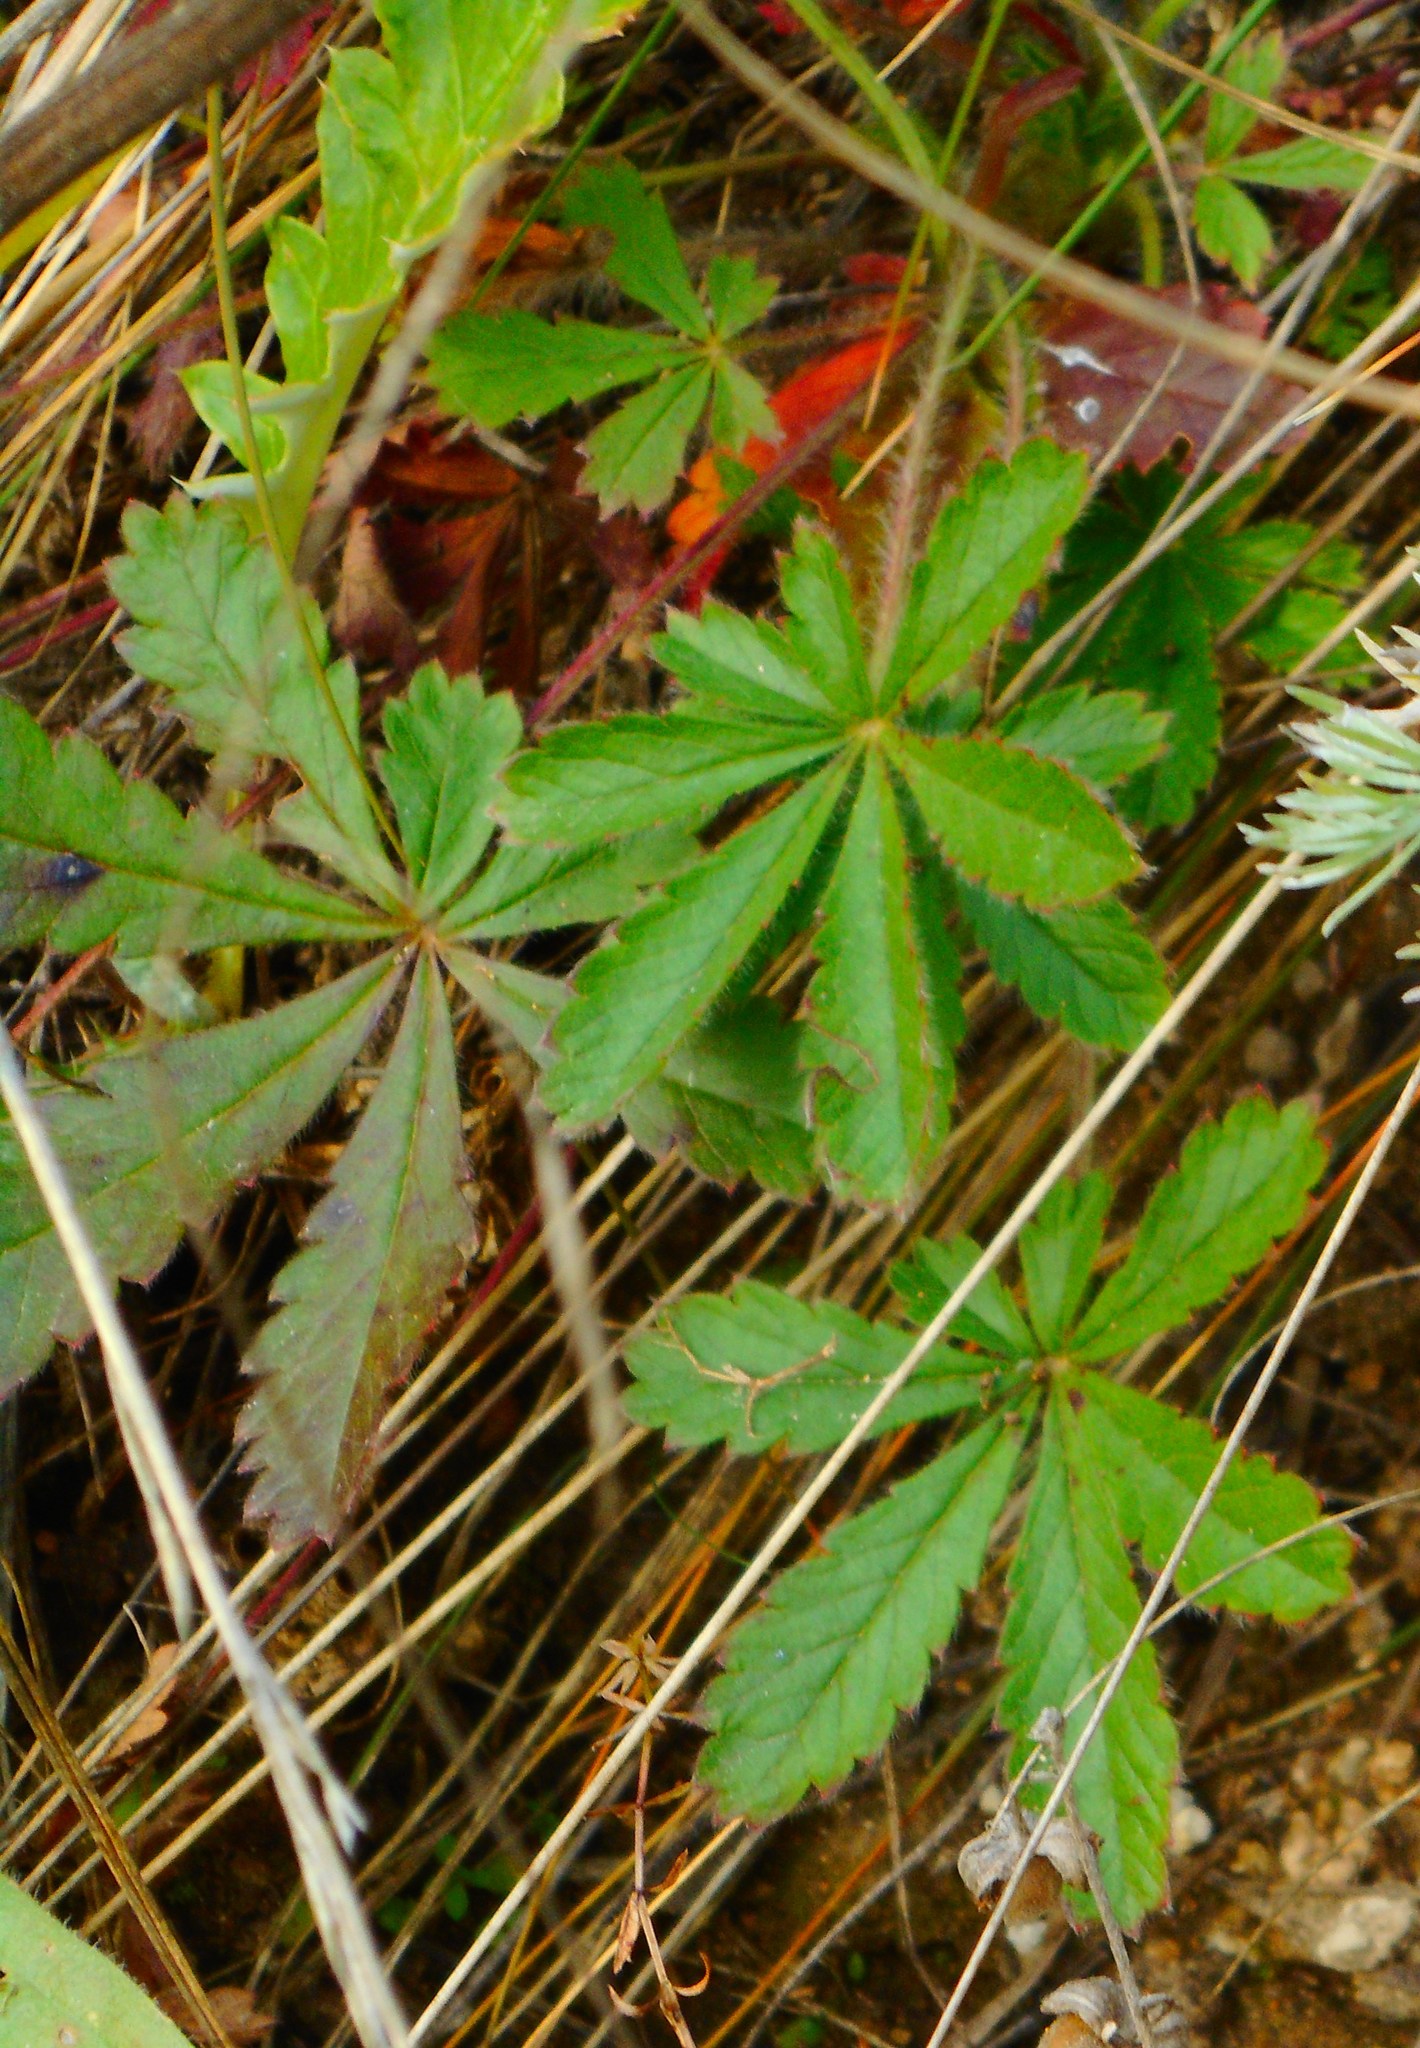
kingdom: Plantae
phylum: Tracheophyta
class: Magnoliopsida
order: Rosales
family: Rosaceae
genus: Potentilla
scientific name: Potentilla humifusa
